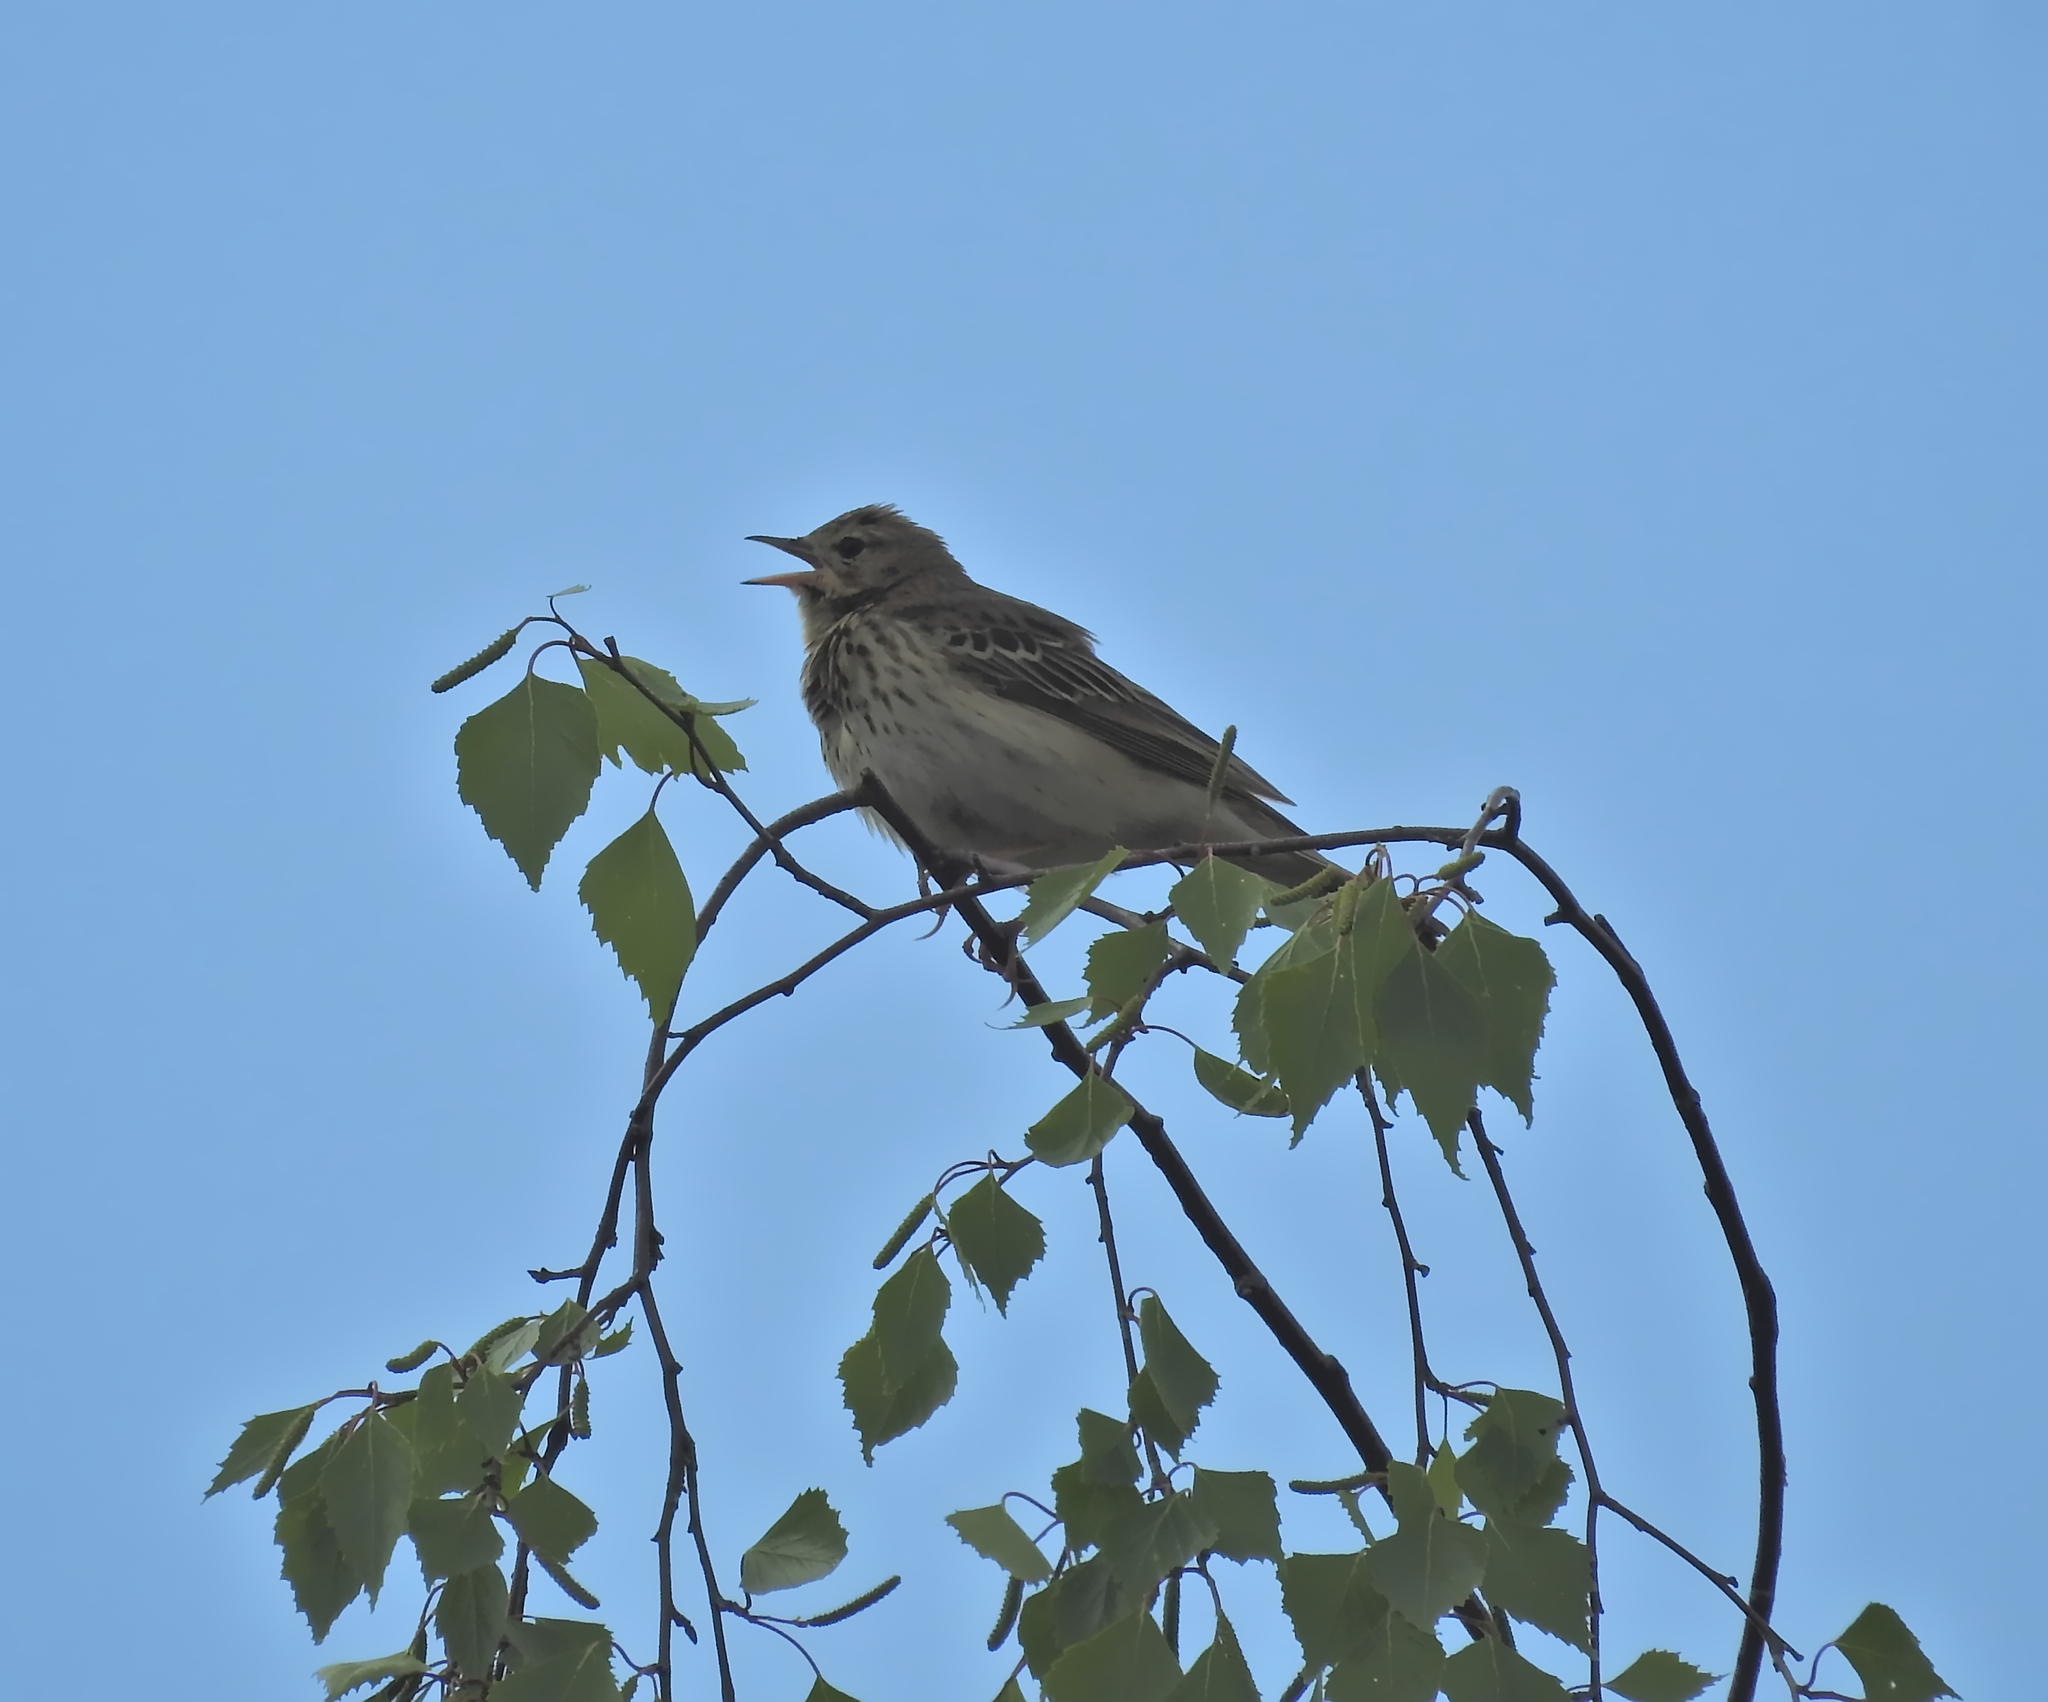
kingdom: Animalia
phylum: Chordata
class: Aves
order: Passeriformes
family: Motacillidae
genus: Anthus
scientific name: Anthus trivialis
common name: Tree pipit
